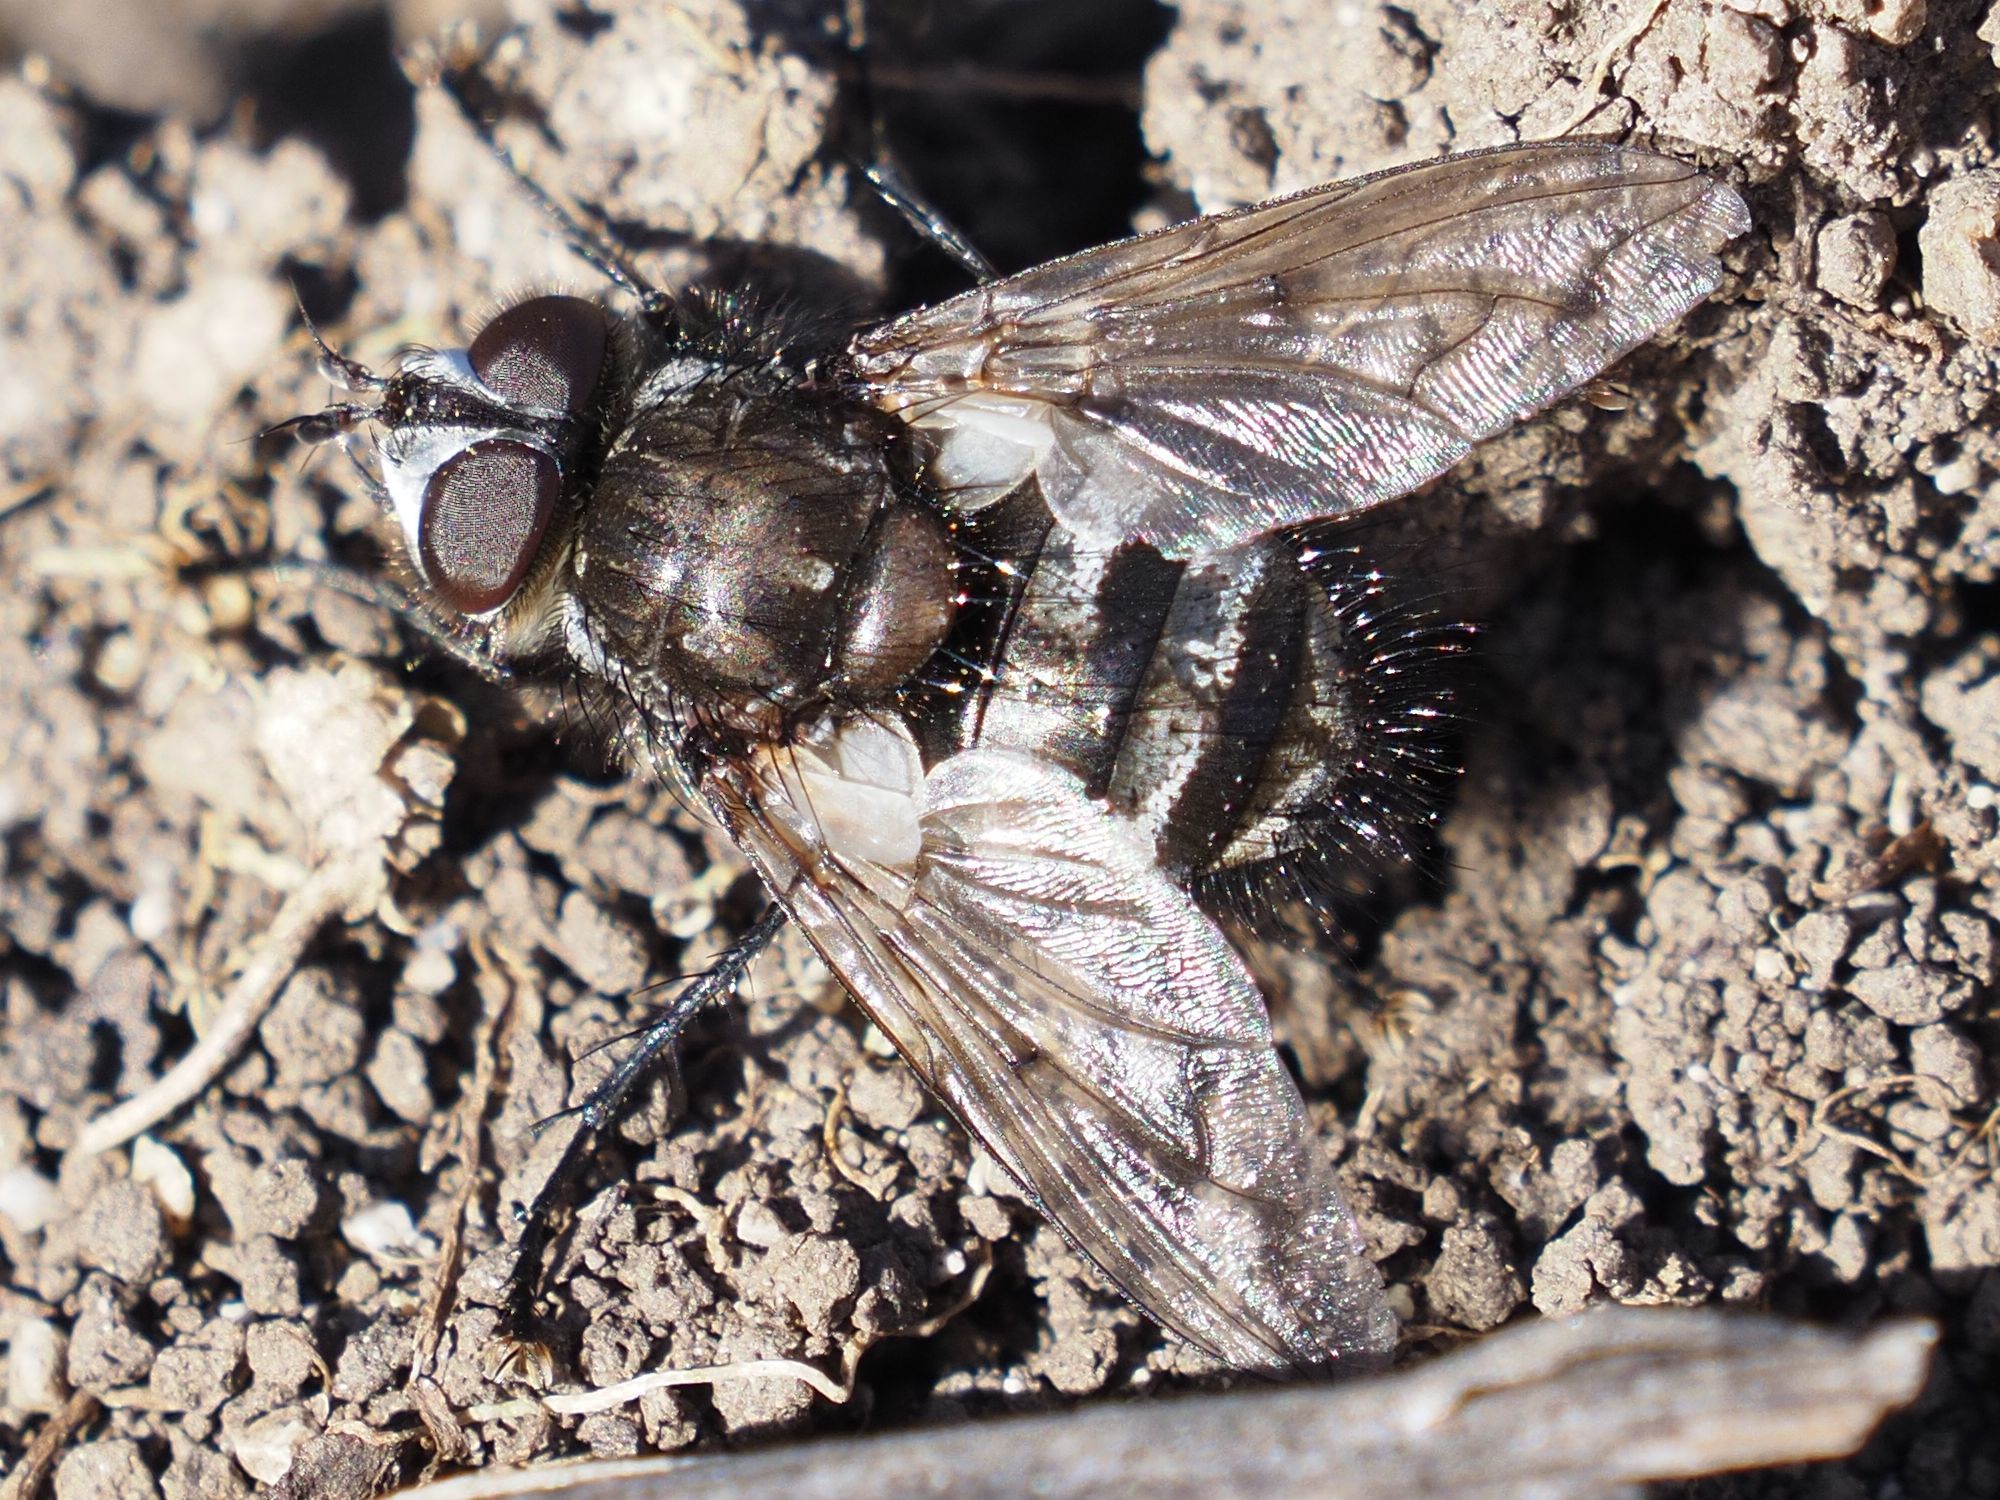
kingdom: Animalia
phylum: Arthropoda
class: Insecta
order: Diptera
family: Tachinidae
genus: Panzeria
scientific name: Panzeria puparum
